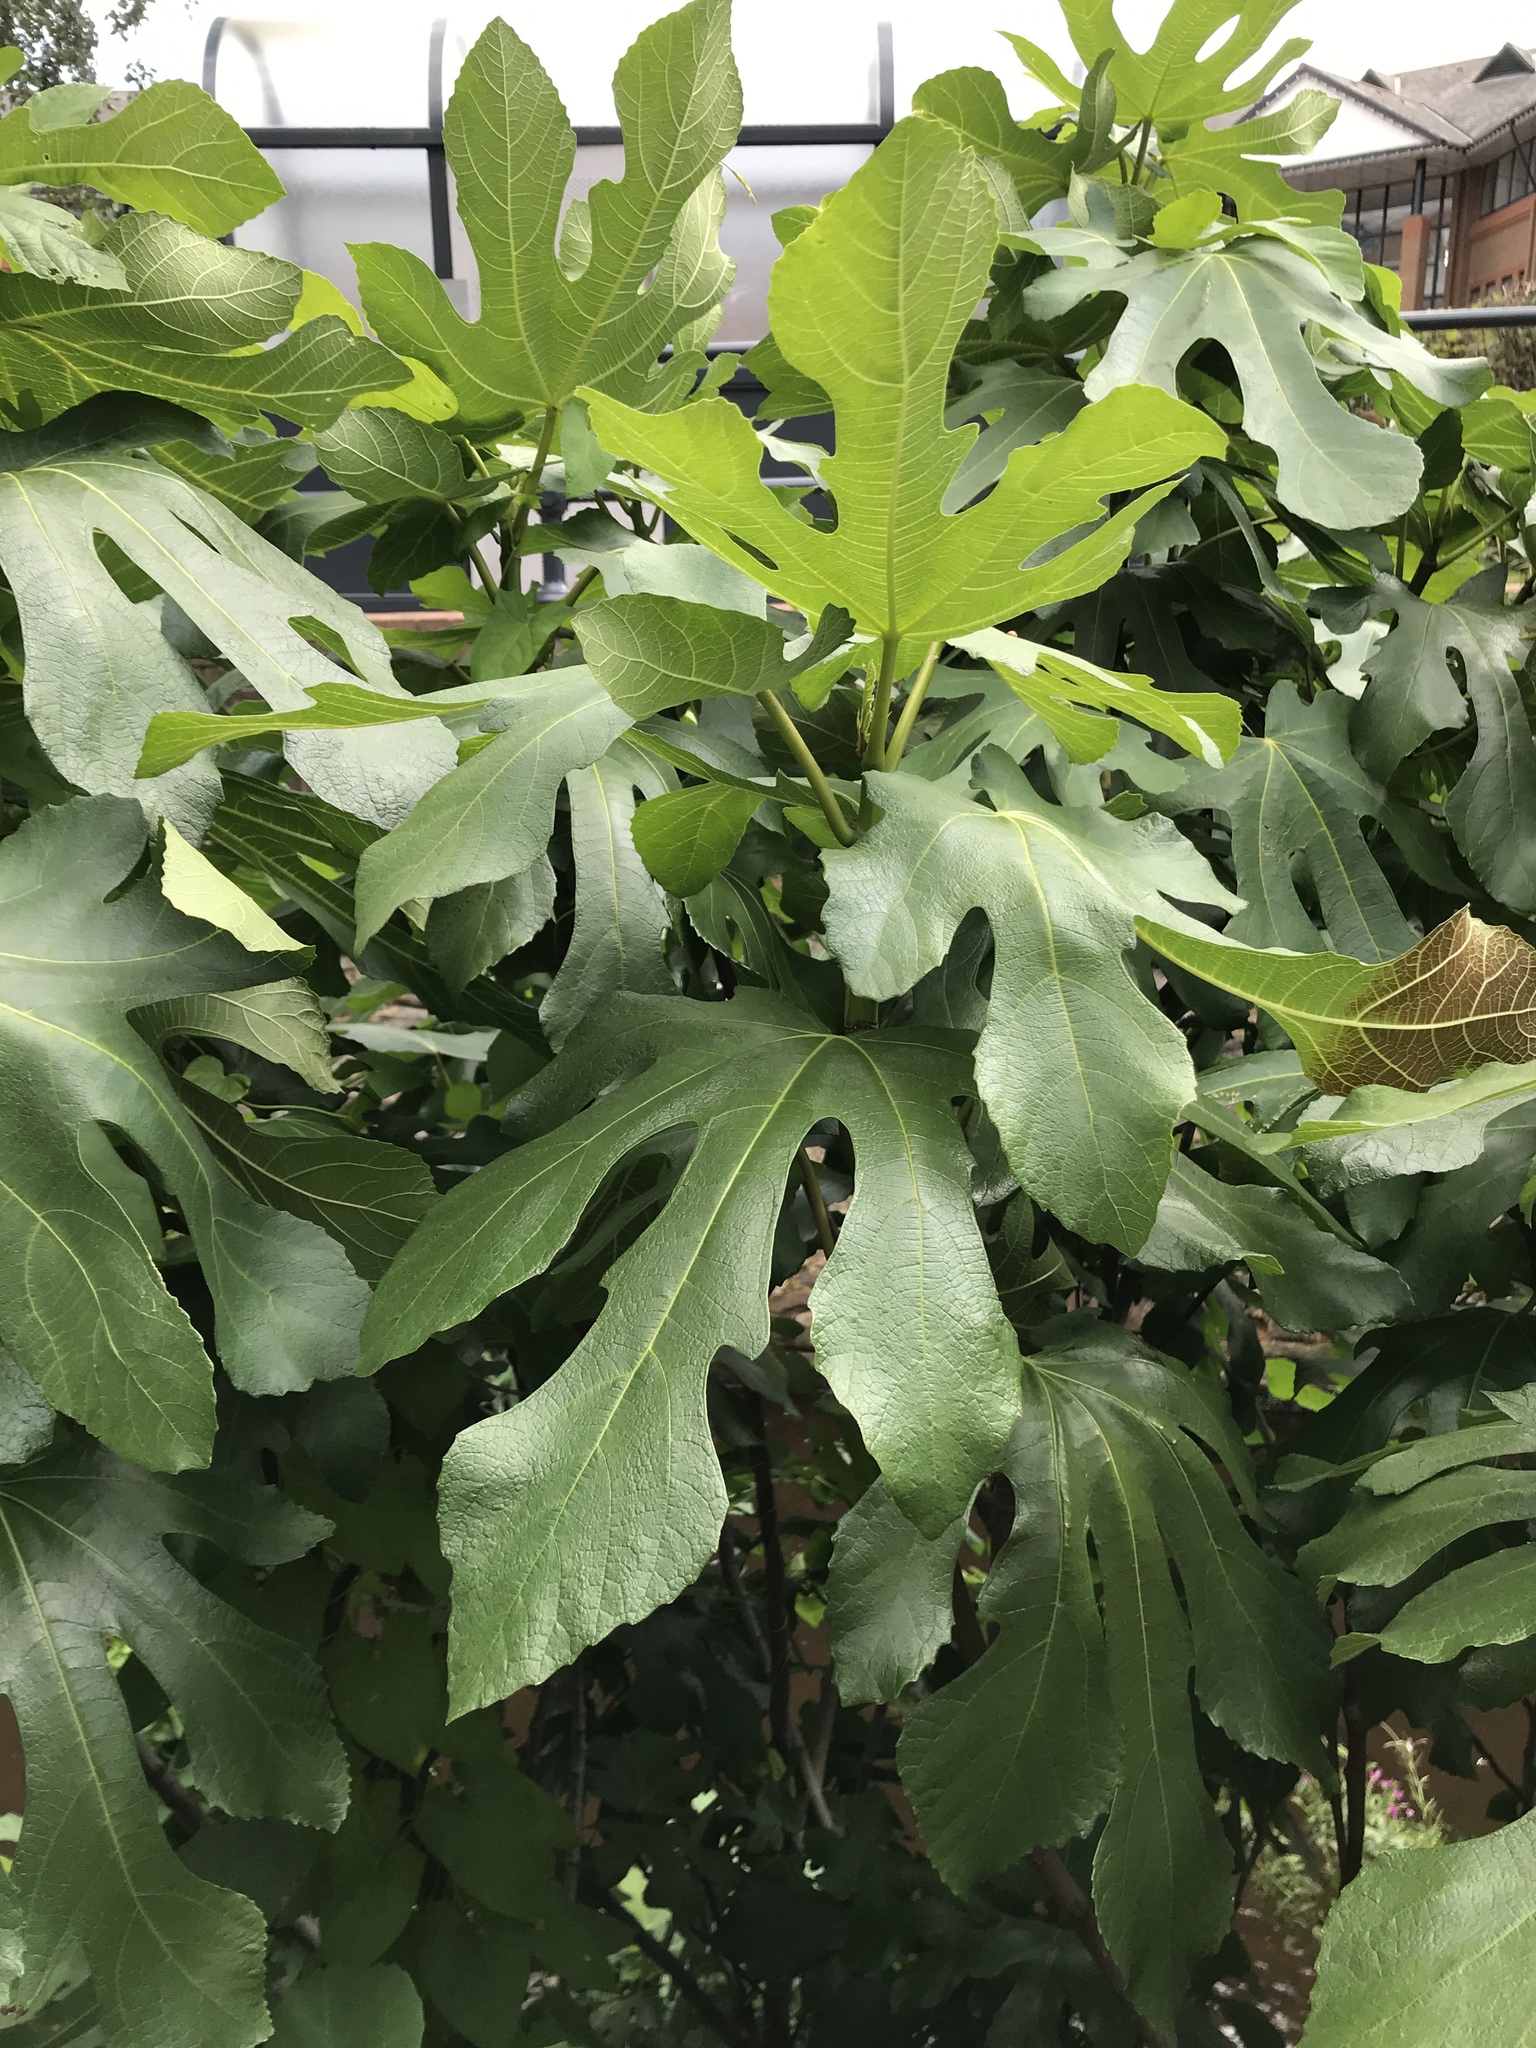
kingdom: Plantae
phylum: Tracheophyta
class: Magnoliopsida
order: Rosales
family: Moraceae
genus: Ficus
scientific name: Ficus carica
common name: Fig
